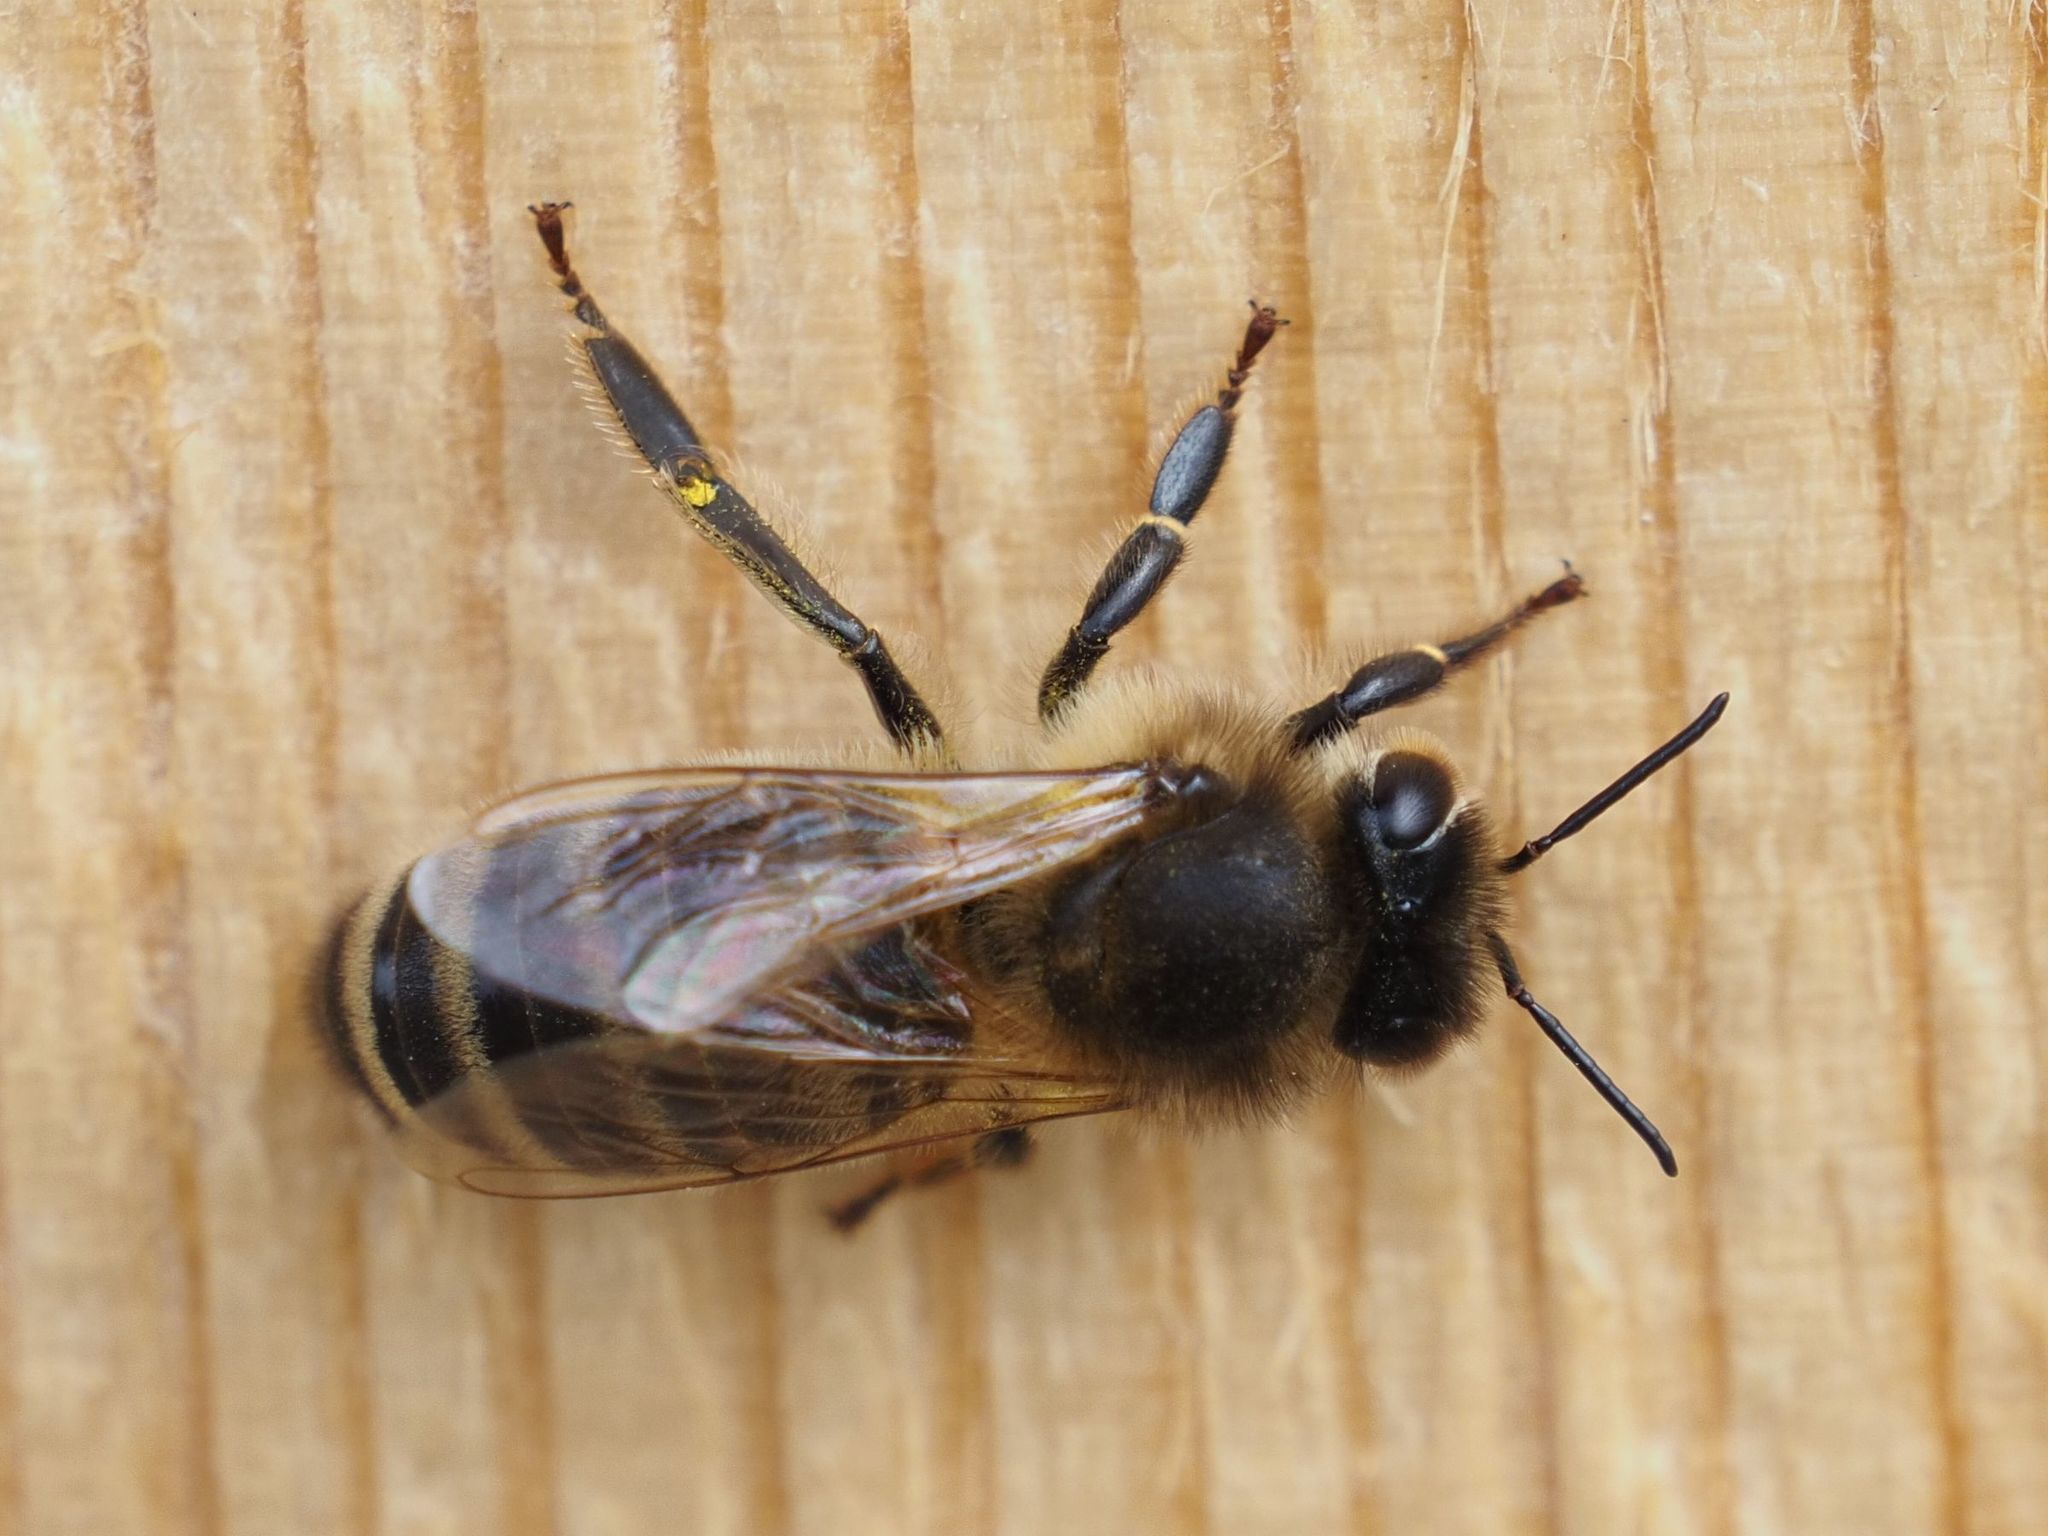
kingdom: Animalia
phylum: Arthropoda
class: Insecta
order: Hymenoptera
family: Apidae
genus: Apis
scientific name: Apis mellifera
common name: Honey bee
